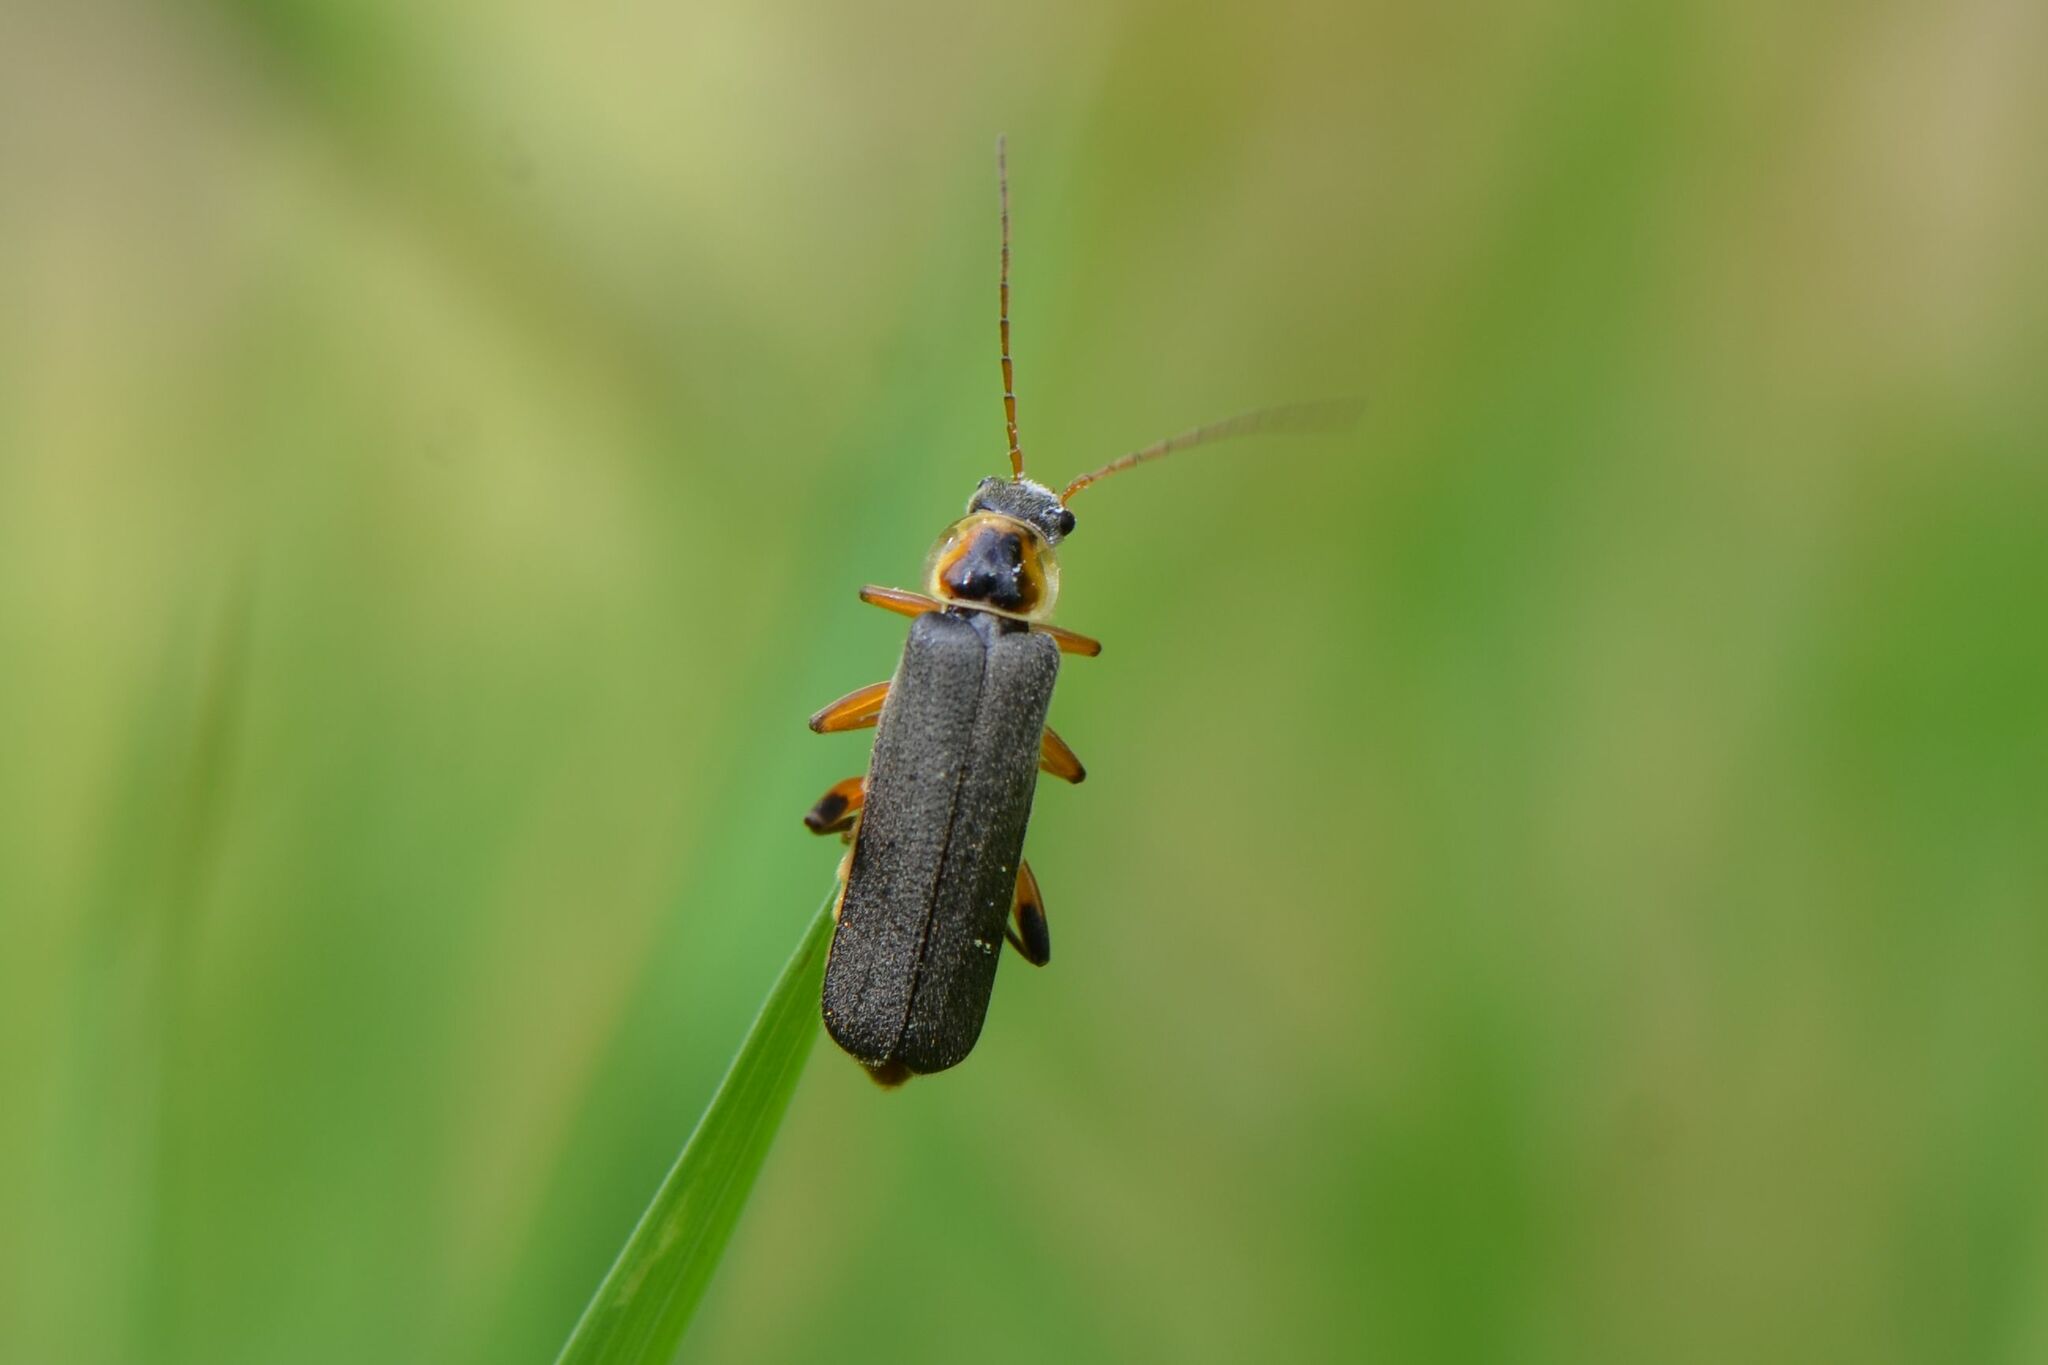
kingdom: Animalia
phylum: Arthropoda
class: Insecta
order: Coleoptera
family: Cantharidae
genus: Cantharis
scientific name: Cantharis nigricans
